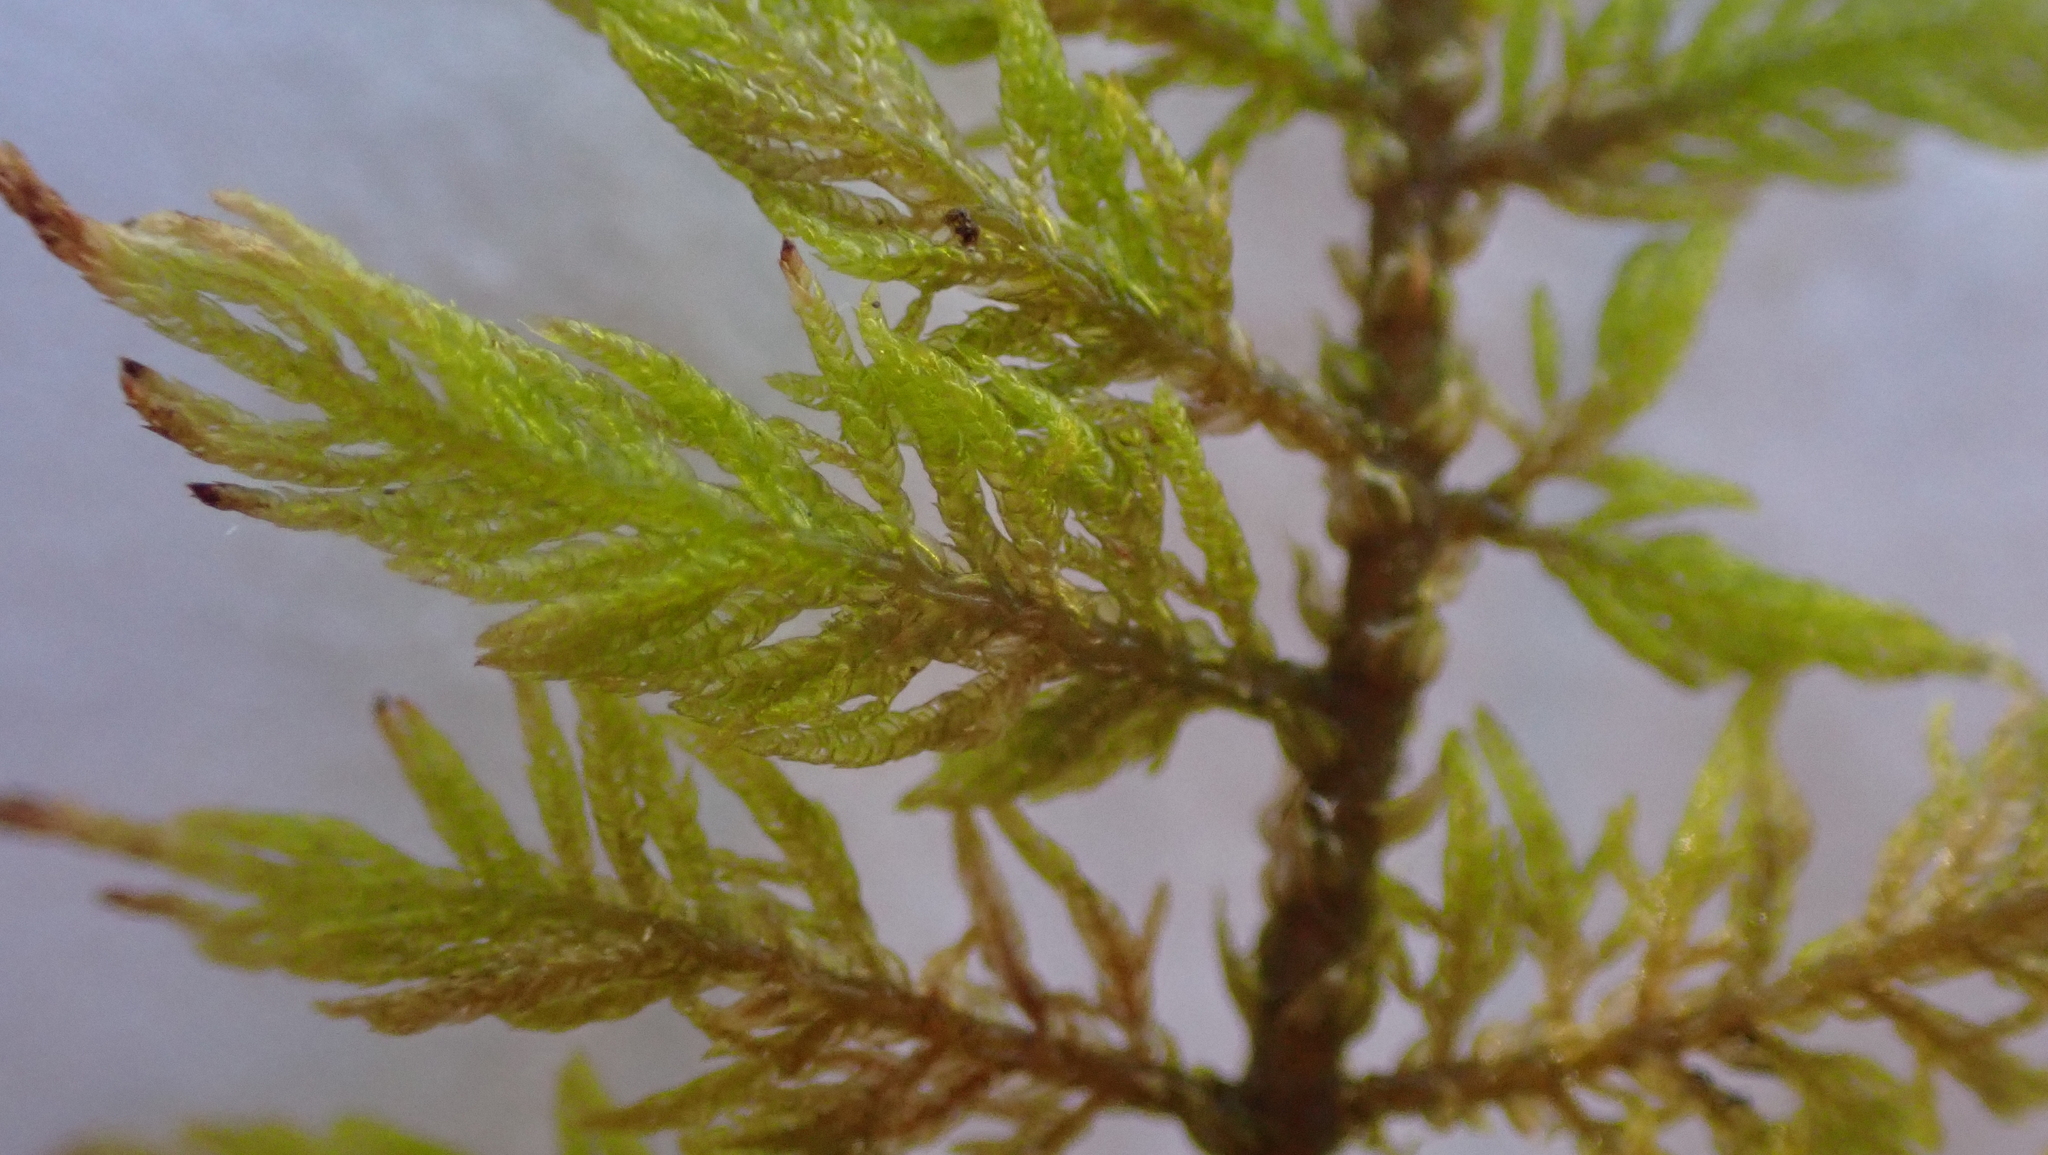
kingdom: Plantae
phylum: Bryophyta
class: Bryopsida
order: Hypnales
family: Thuidiaceae
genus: Thuidium
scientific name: Thuidium delicatulum
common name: Delicate fern moss
